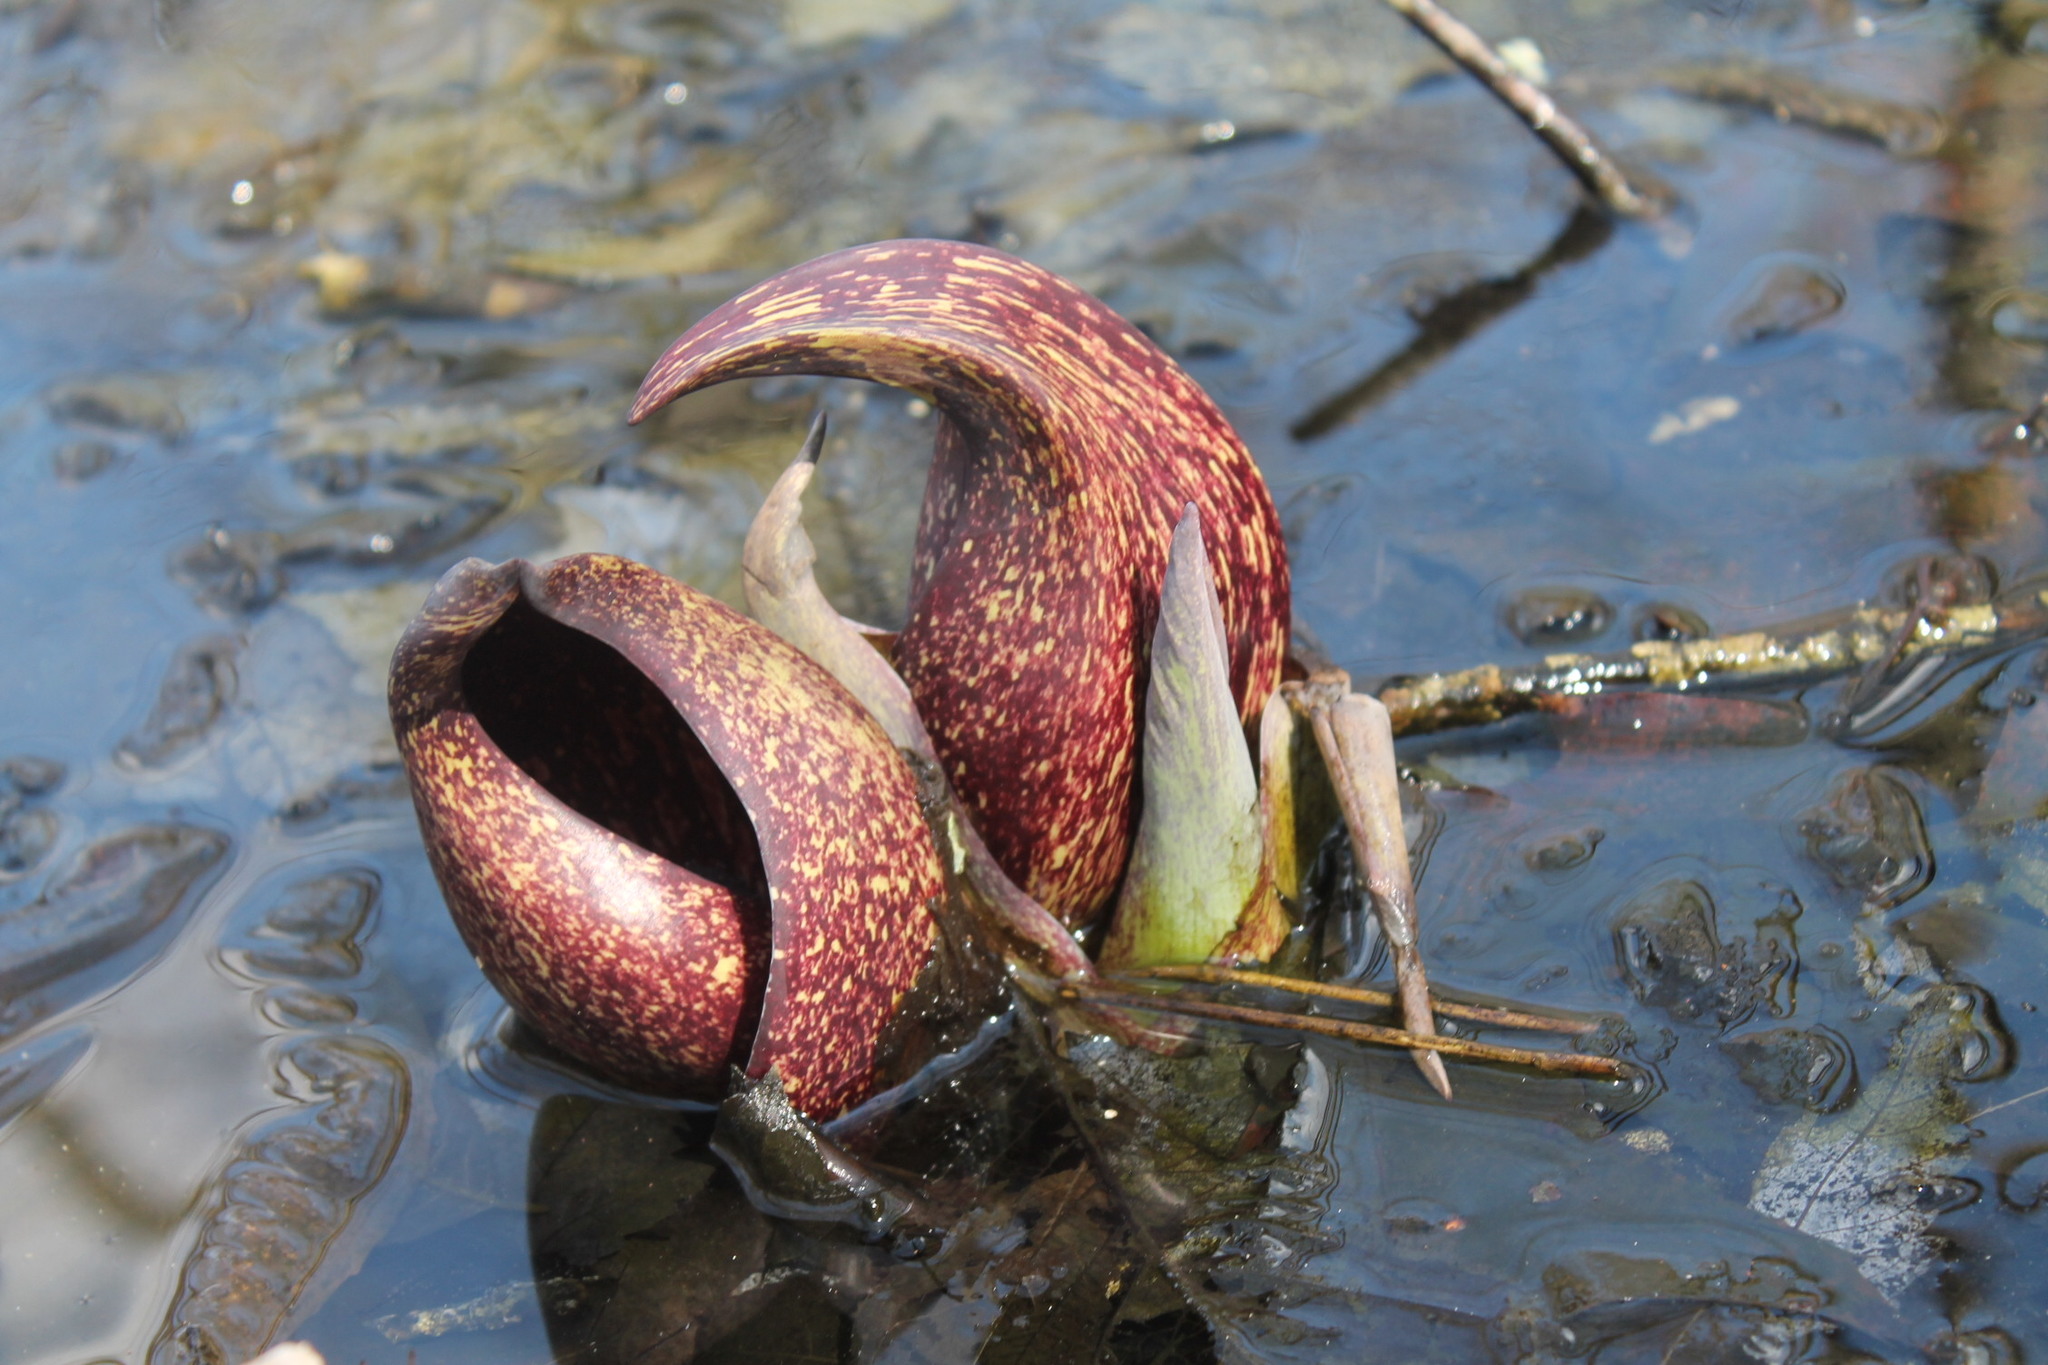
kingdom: Plantae
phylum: Tracheophyta
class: Liliopsida
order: Alismatales
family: Araceae
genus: Symplocarpus
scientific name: Symplocarpus foetidus
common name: Eastern skunk cabbage
